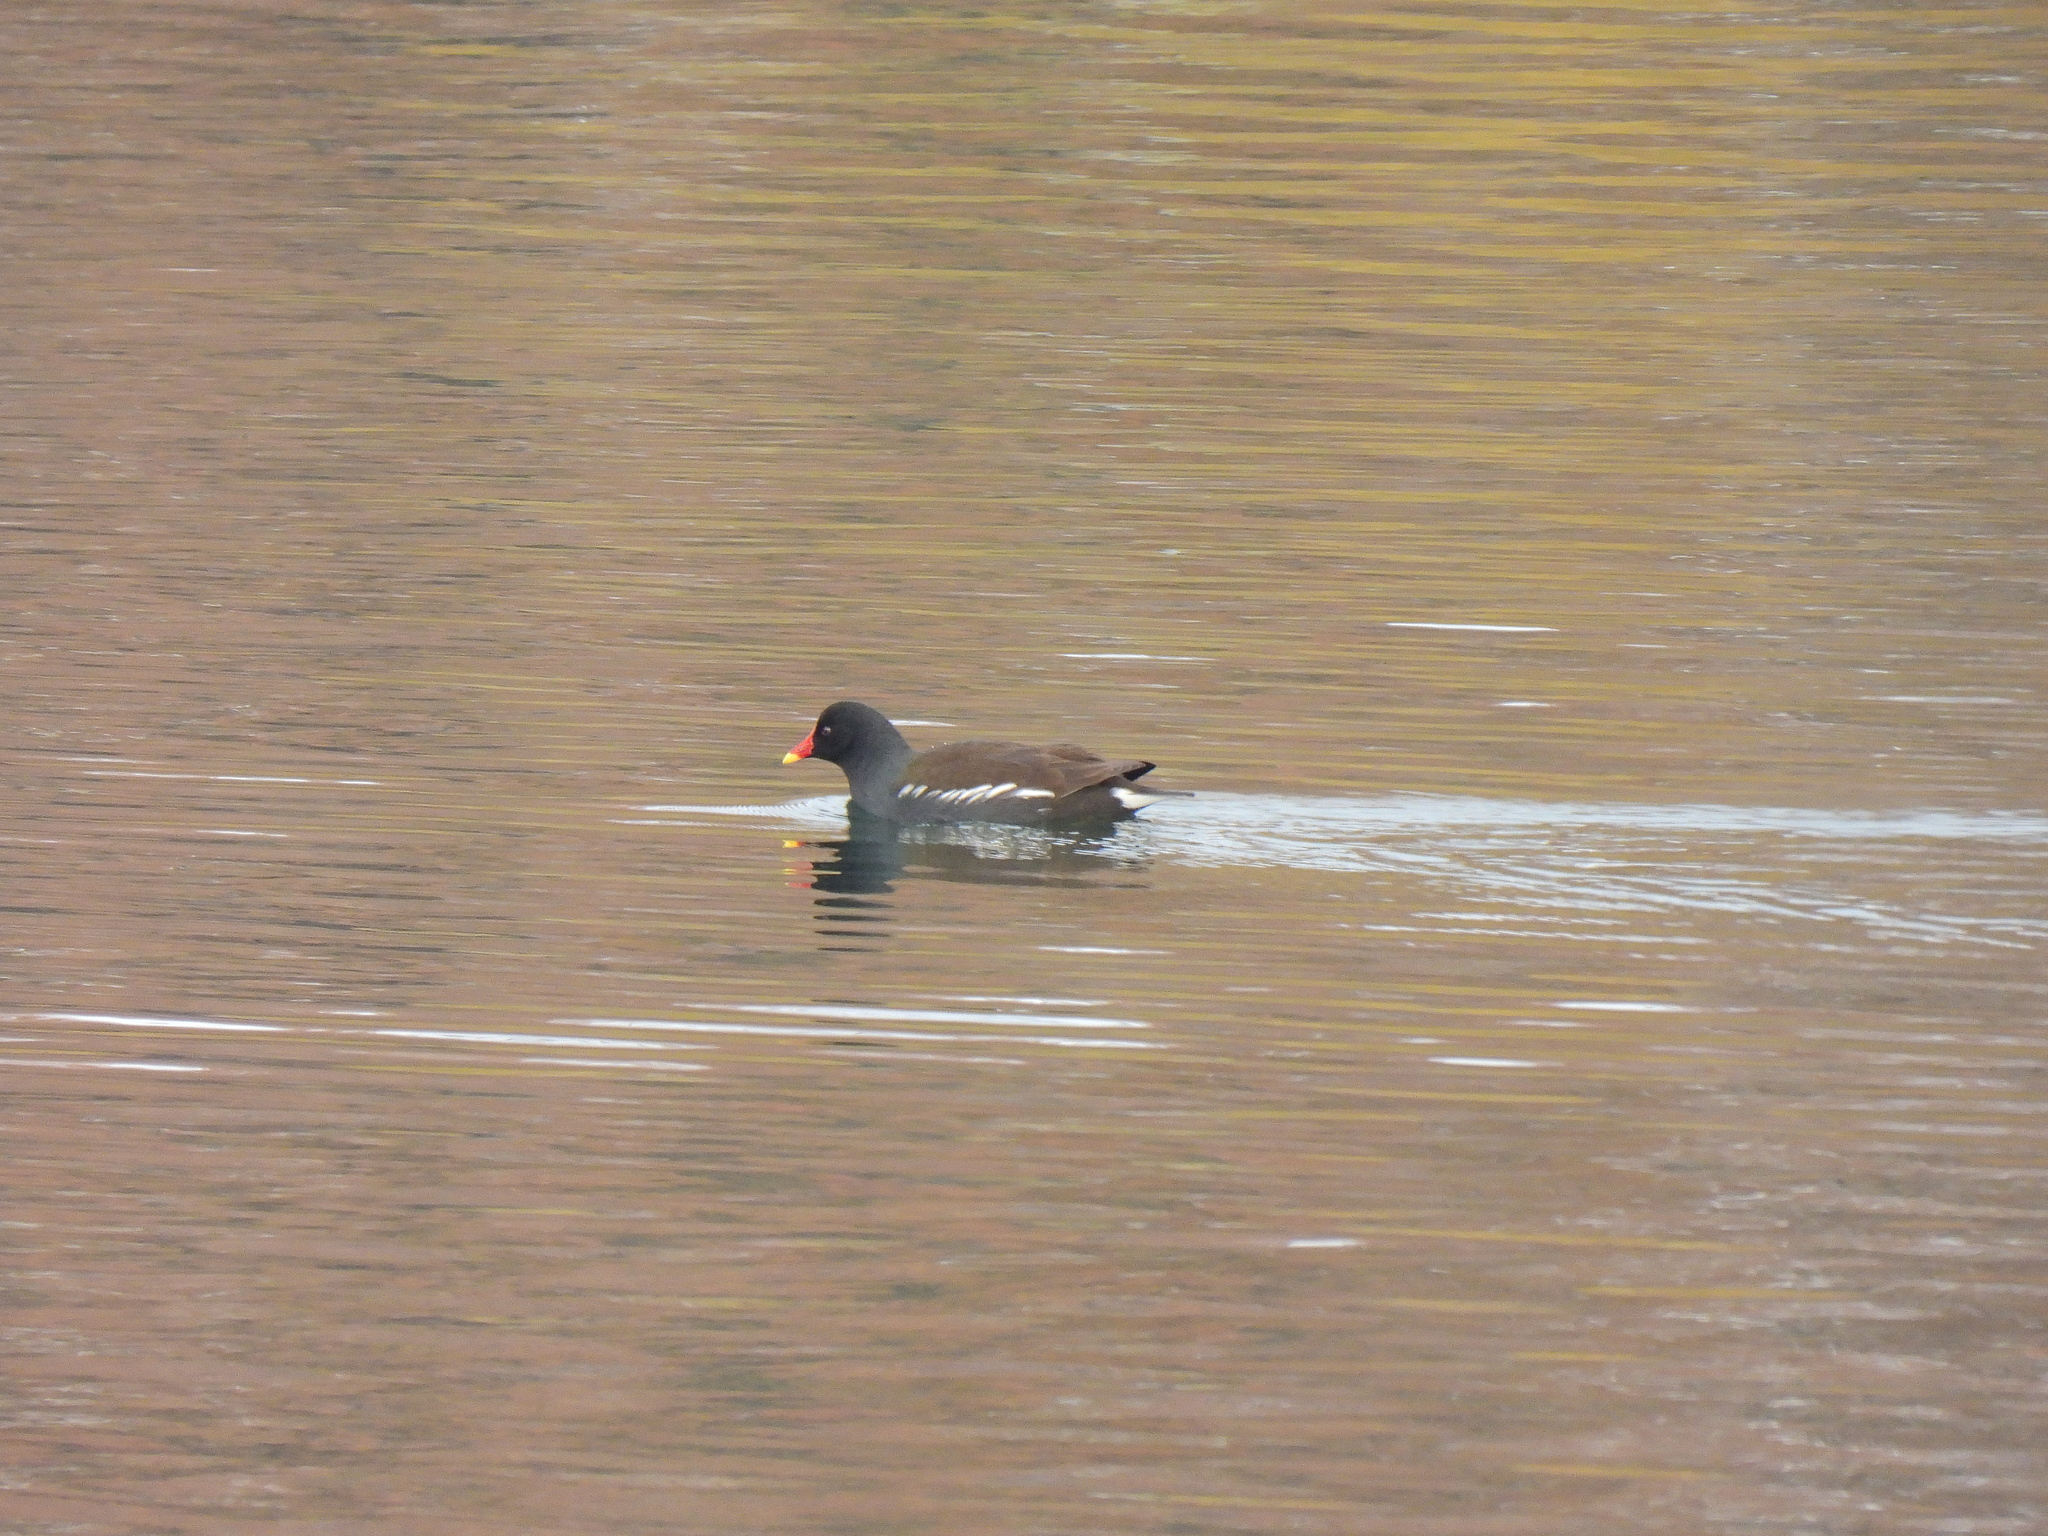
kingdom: Animalia
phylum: Chordata
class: Aves
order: Gruiformes
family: Rallidae
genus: Gallinula
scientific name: Gallinula chloropus
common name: Common moorhen
